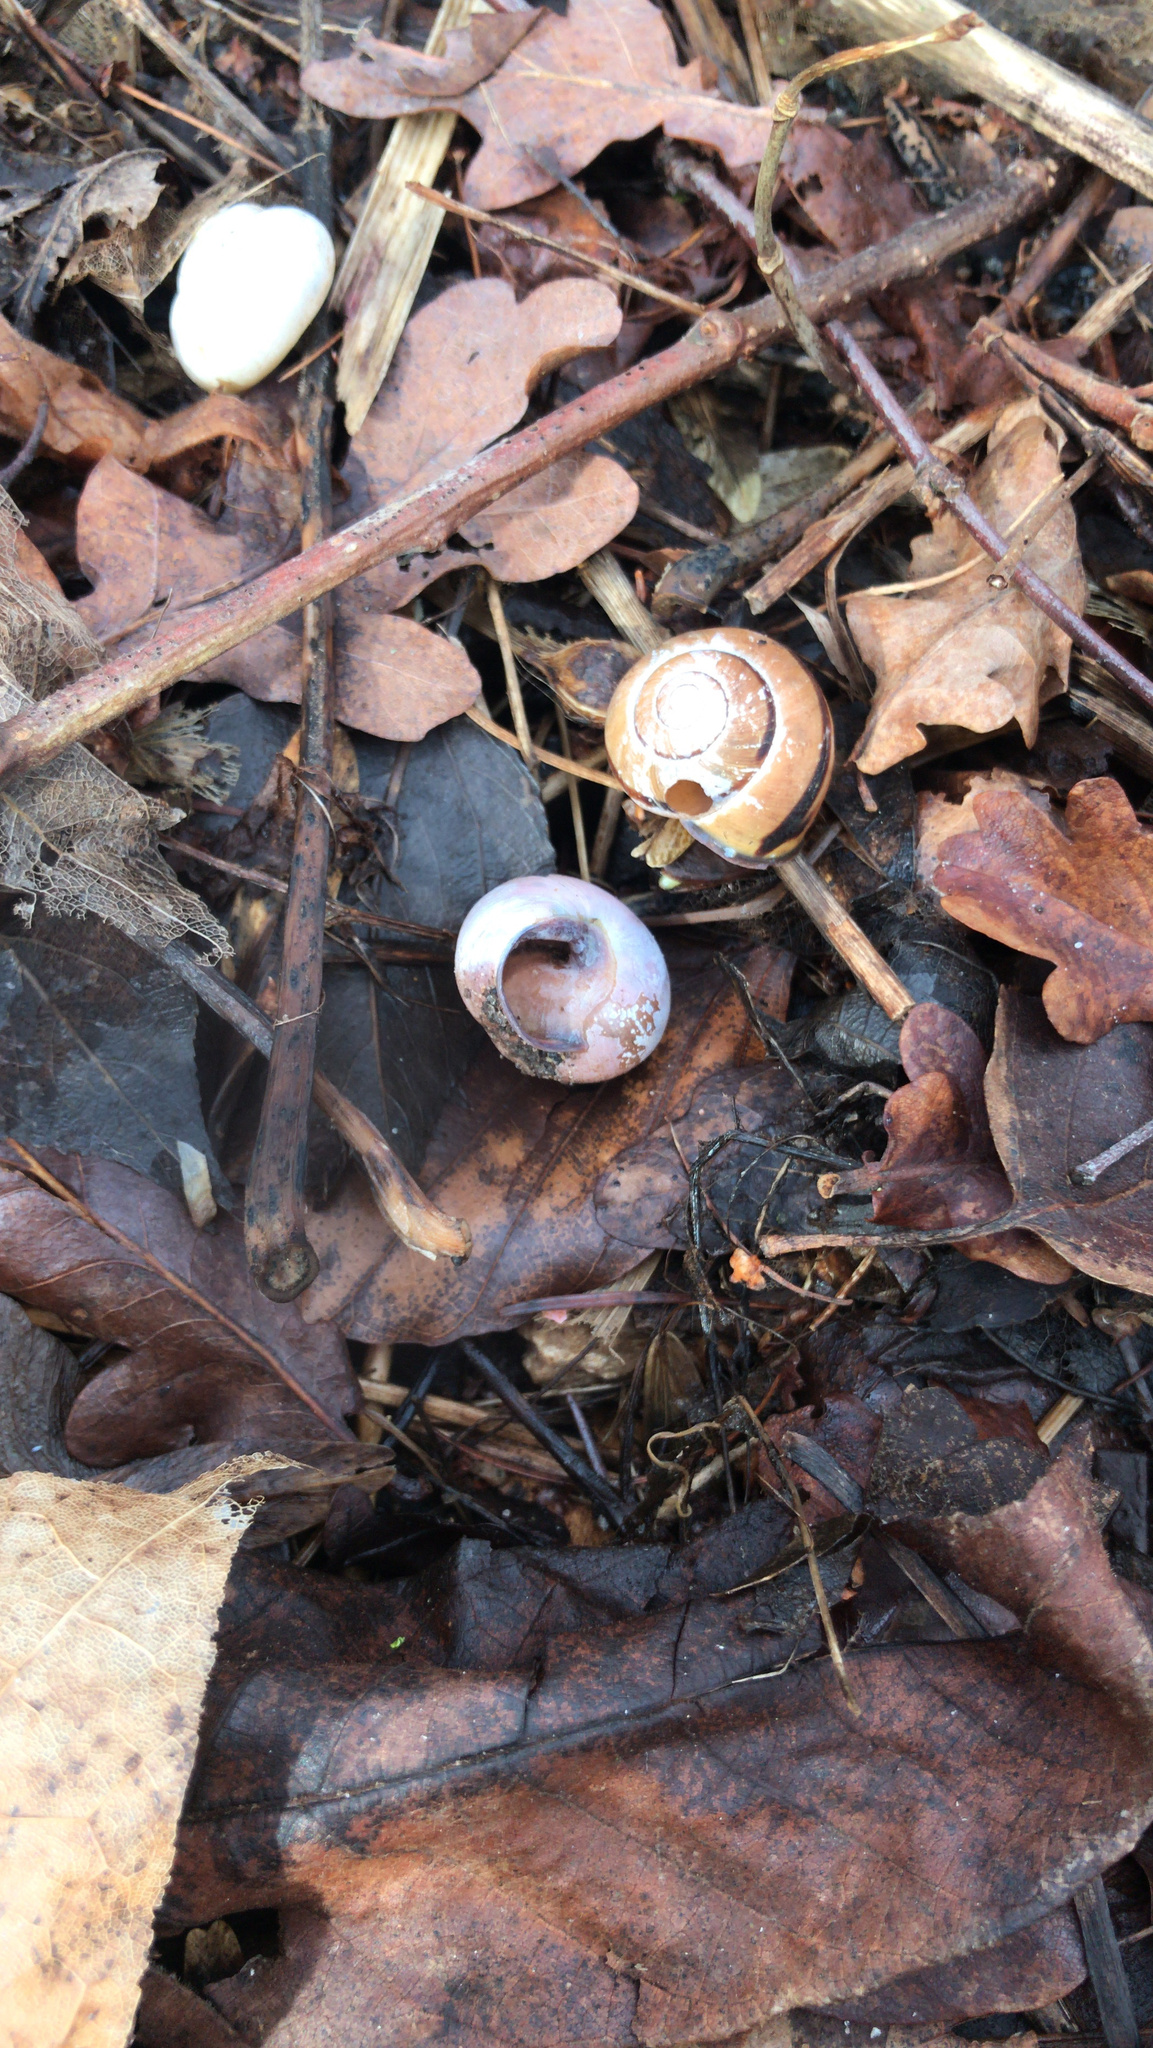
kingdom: Animalia
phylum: Mollusca
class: Gastropoda
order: Stylommatophora
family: Helicidae
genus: Cepaea
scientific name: Cepaea nemoralis
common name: Grovesnail
